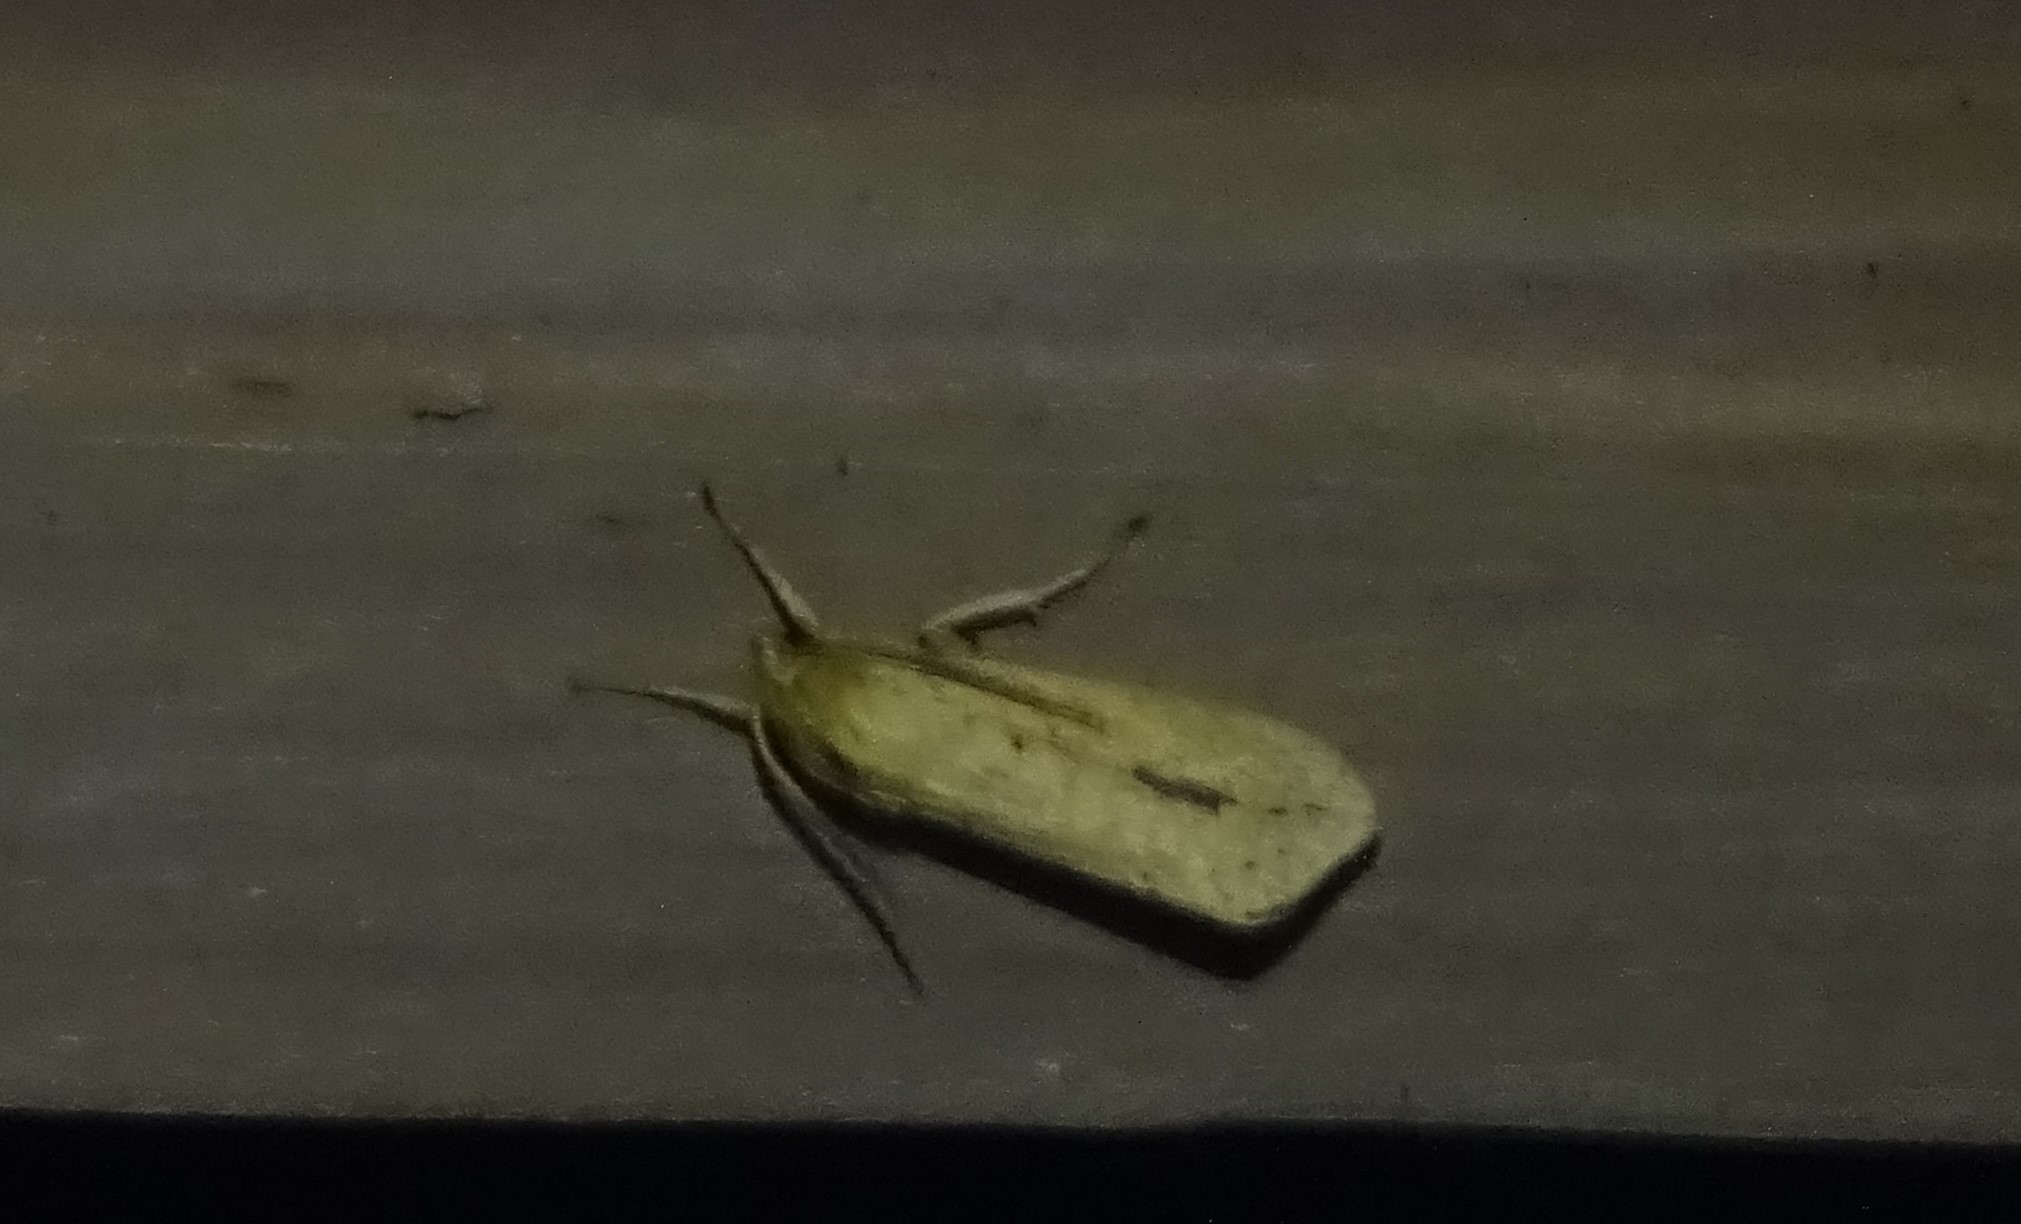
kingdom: Animalia
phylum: Arthropoda
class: Insecta
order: Lepidoptera
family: Erebidae
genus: Leucanopsis
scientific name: Leucanopsis longa
